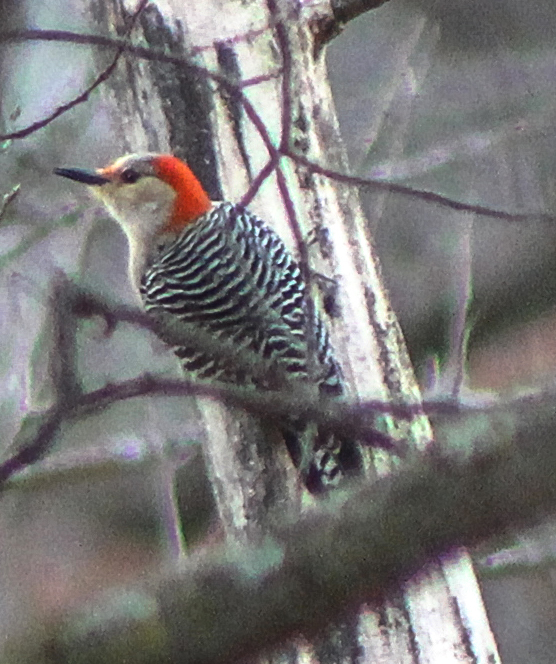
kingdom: Animalia
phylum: Chordata
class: Aves
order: Piciformes
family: Picidae
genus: Melanerpes
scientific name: Melanerpes carolinus
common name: Red-bellied woodpecker
